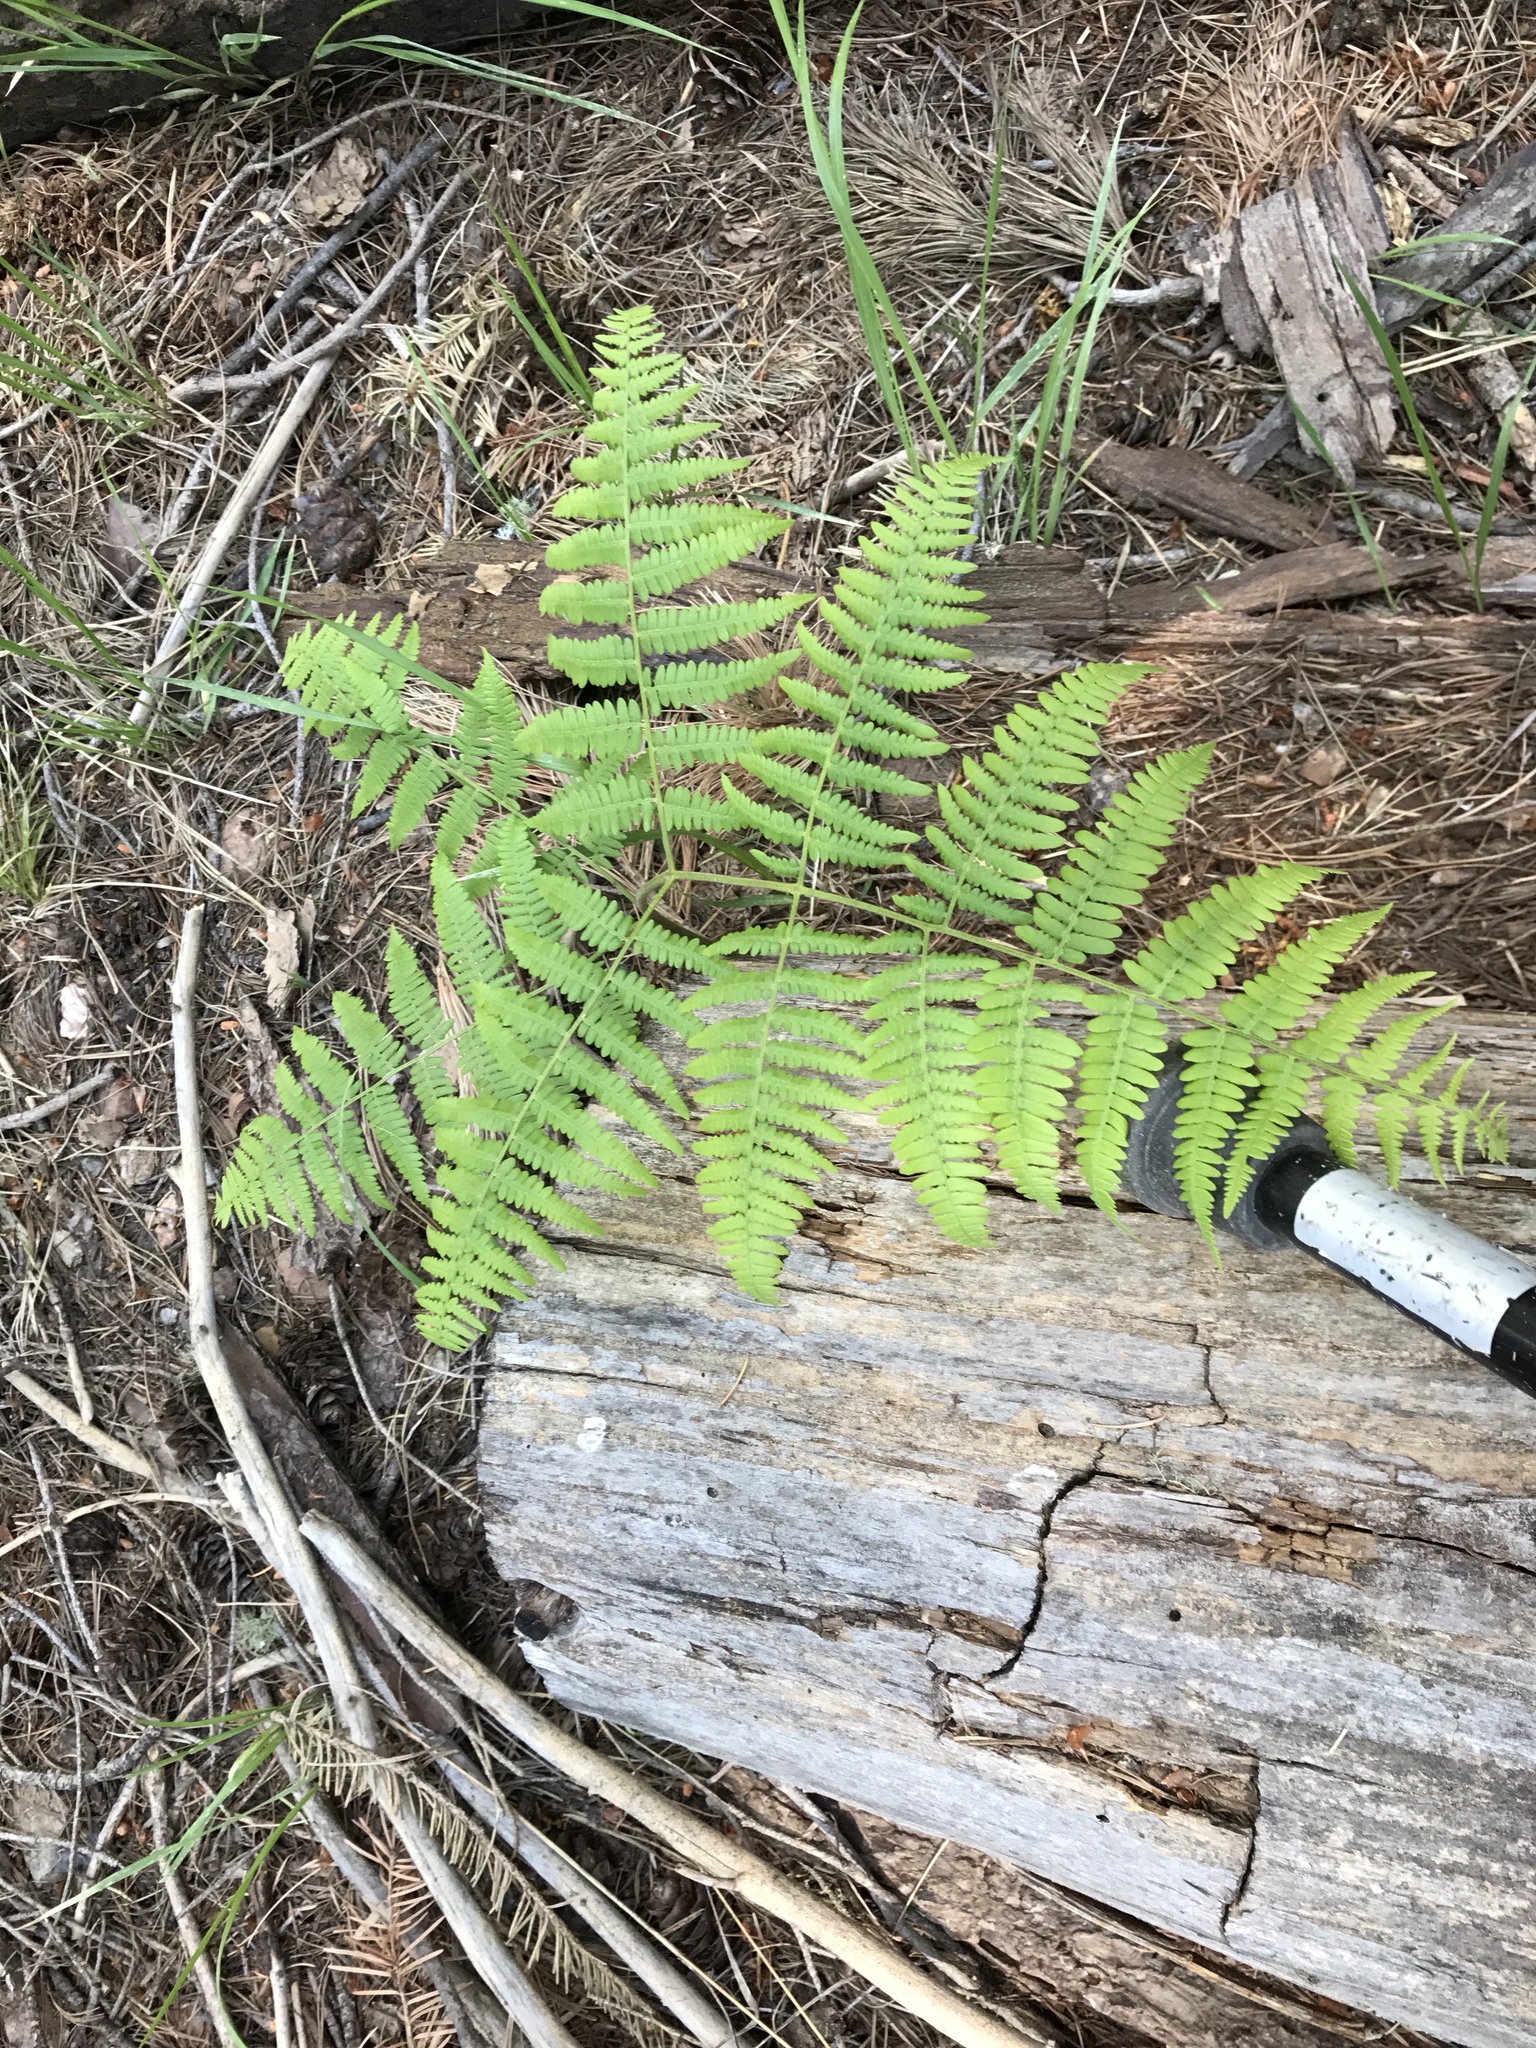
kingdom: Plantae
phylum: Tracheophyta
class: Polypodiopsida
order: Polypodiales
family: Dennstaedtiaceae
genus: Pteridium
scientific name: Pteridium aquilinum
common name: Bracken
